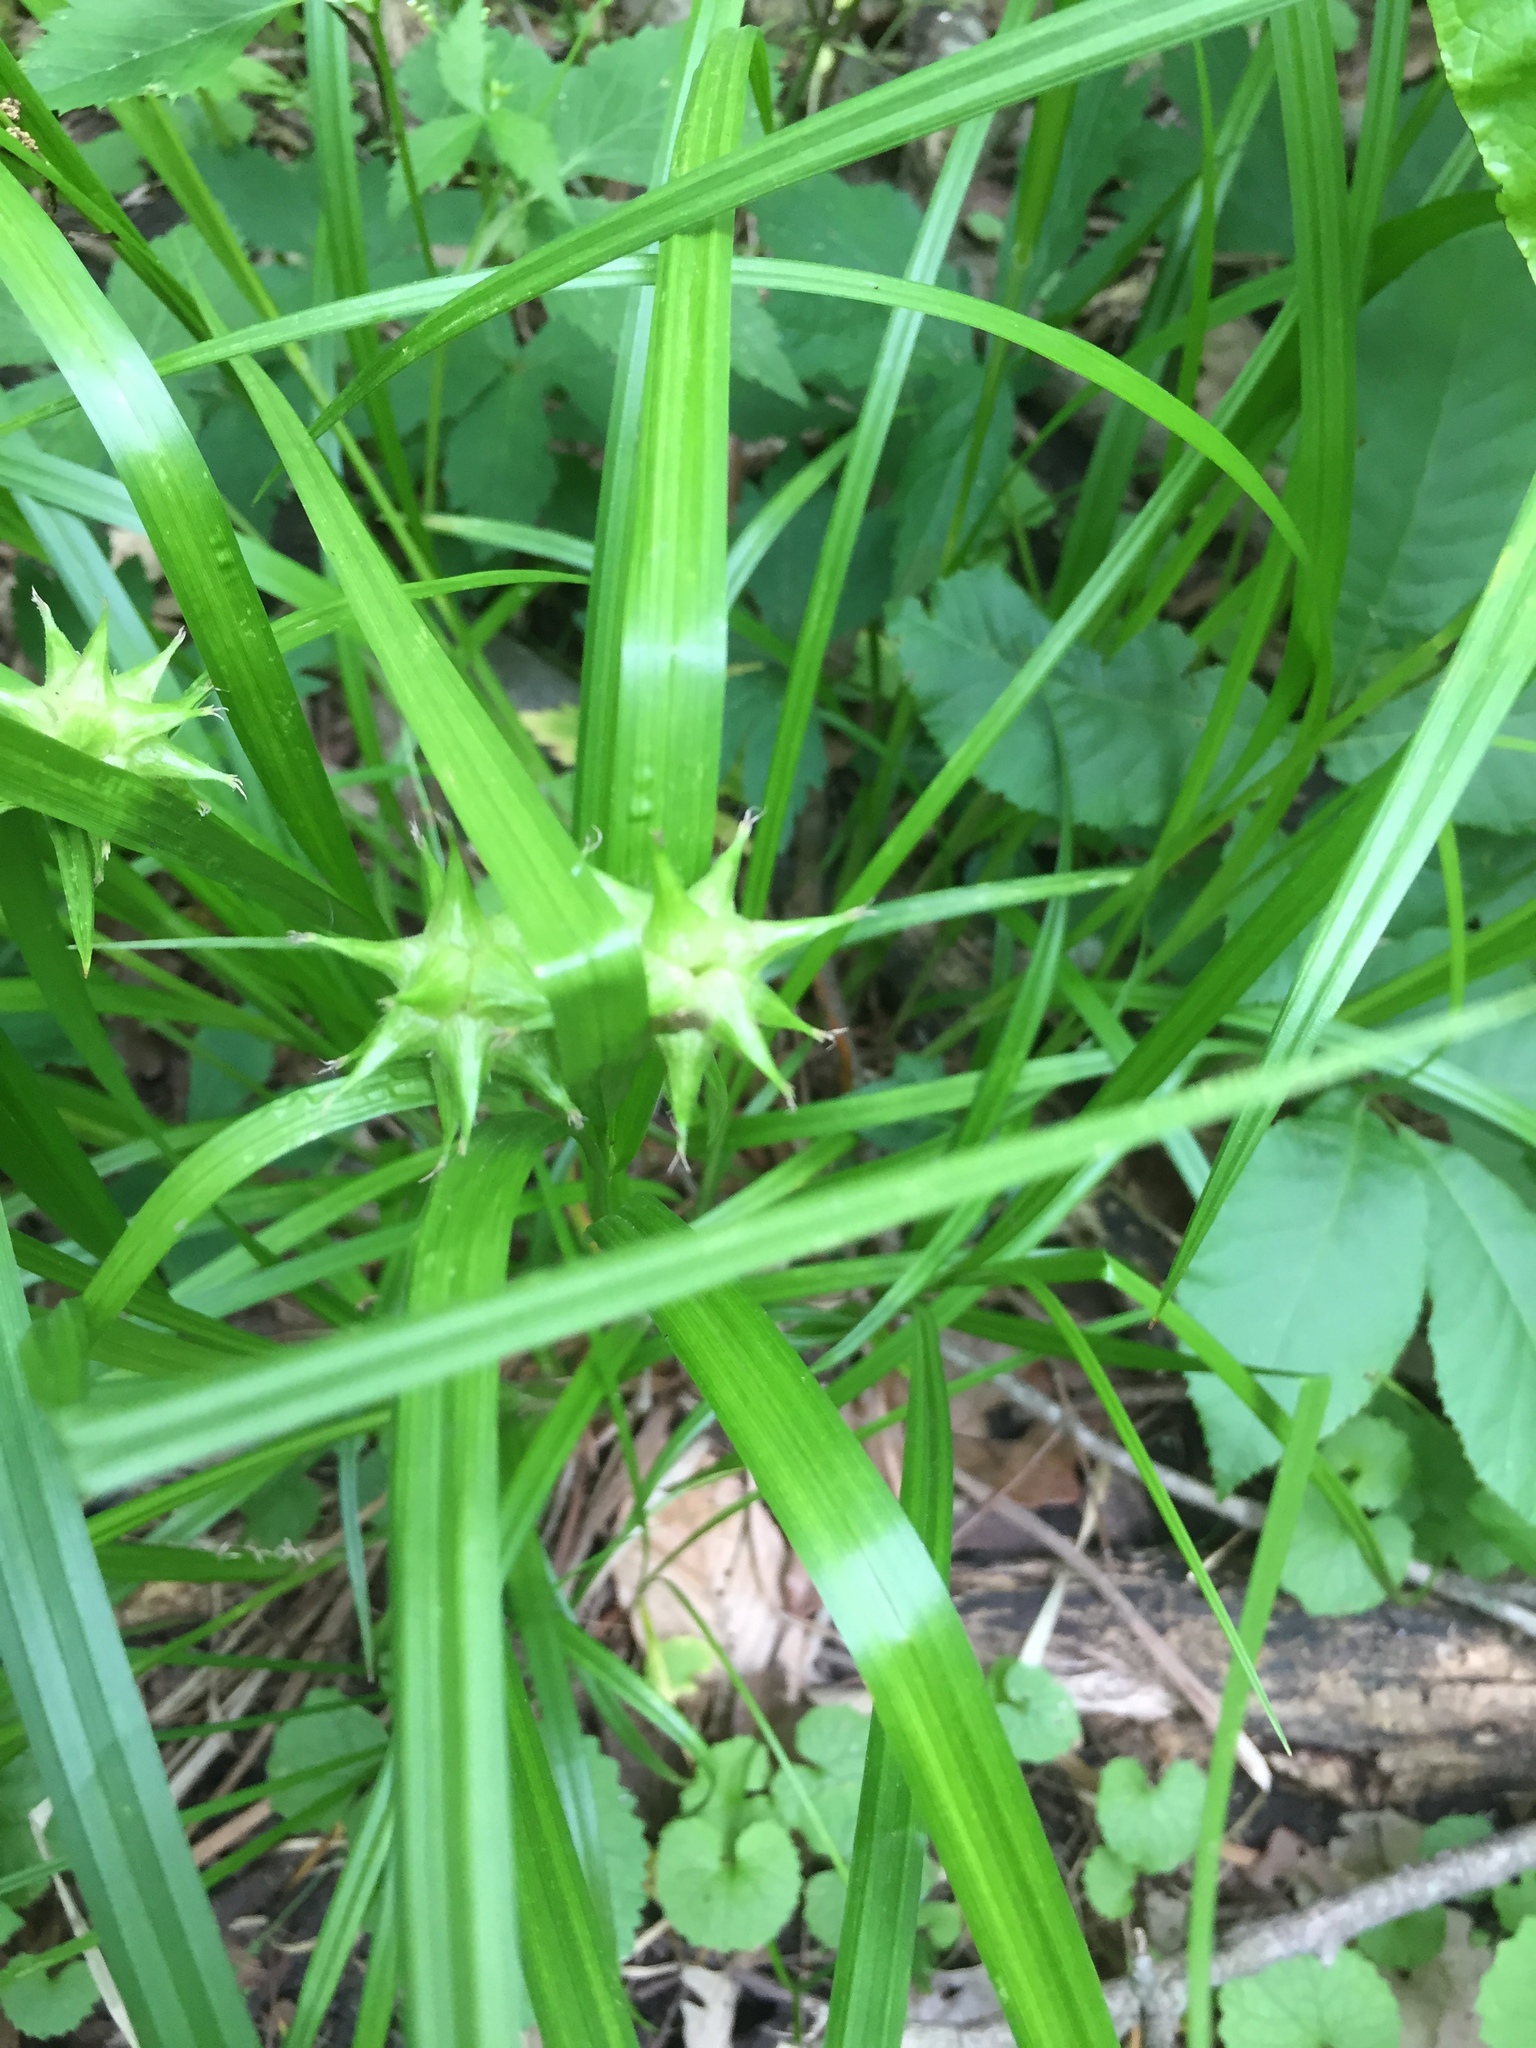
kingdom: Plantae
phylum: Tracheophyta
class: Liliopsida
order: Poales
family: Cyperaceae
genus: Carex
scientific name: Carex grayi
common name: Asa gray's sedge
